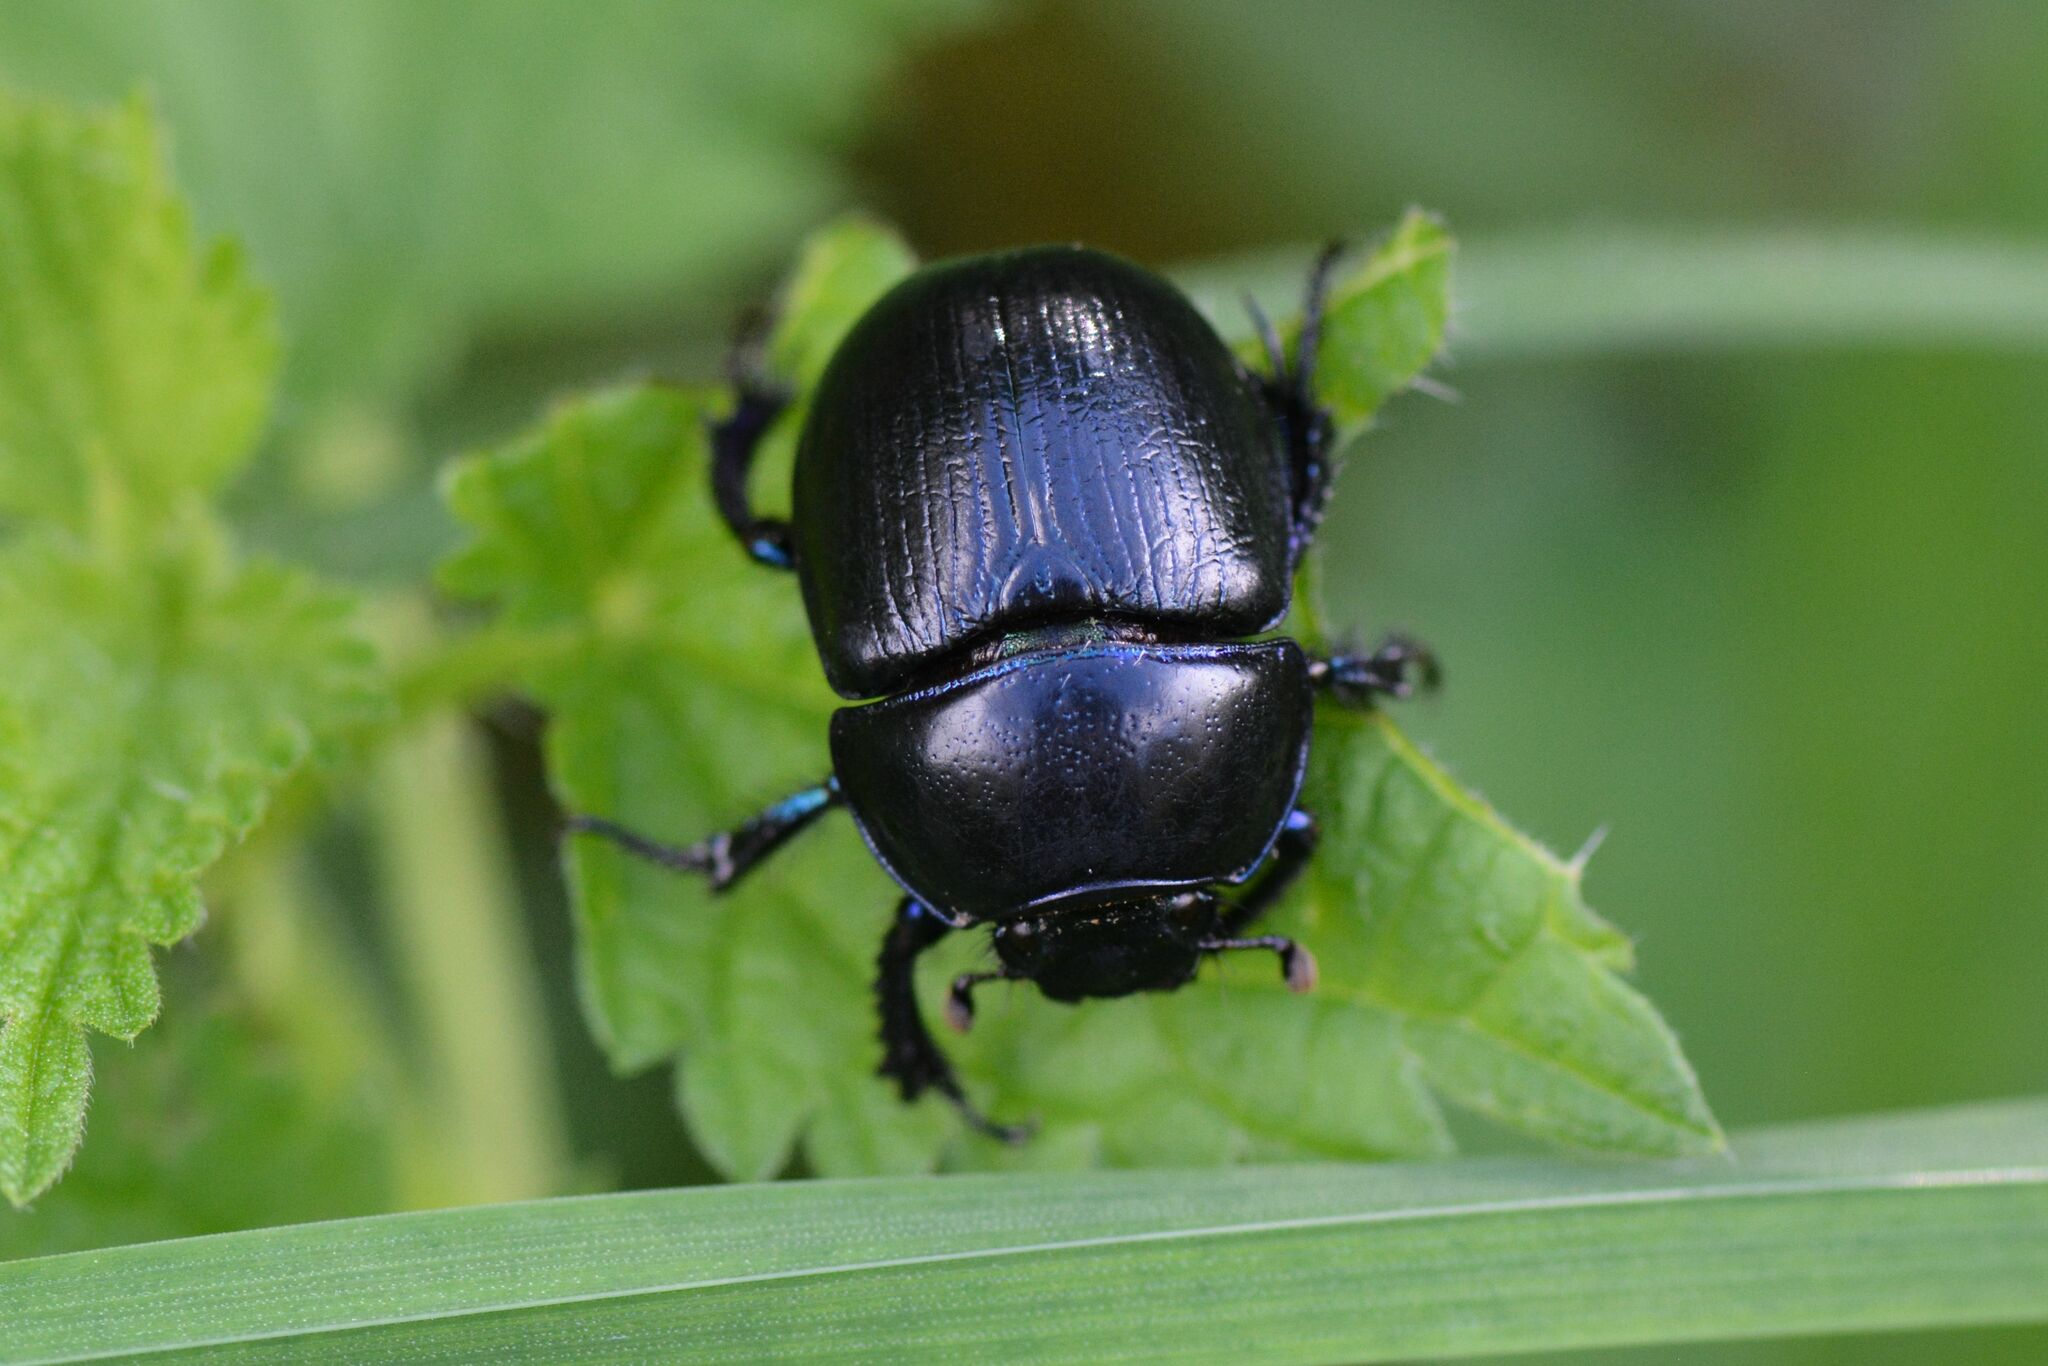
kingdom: Animalia
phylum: Arthropoda
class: Insecta
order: Coleoptera
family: Geotrupidae
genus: Anoplotrupes
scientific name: Anoplotrupes stercorosus
